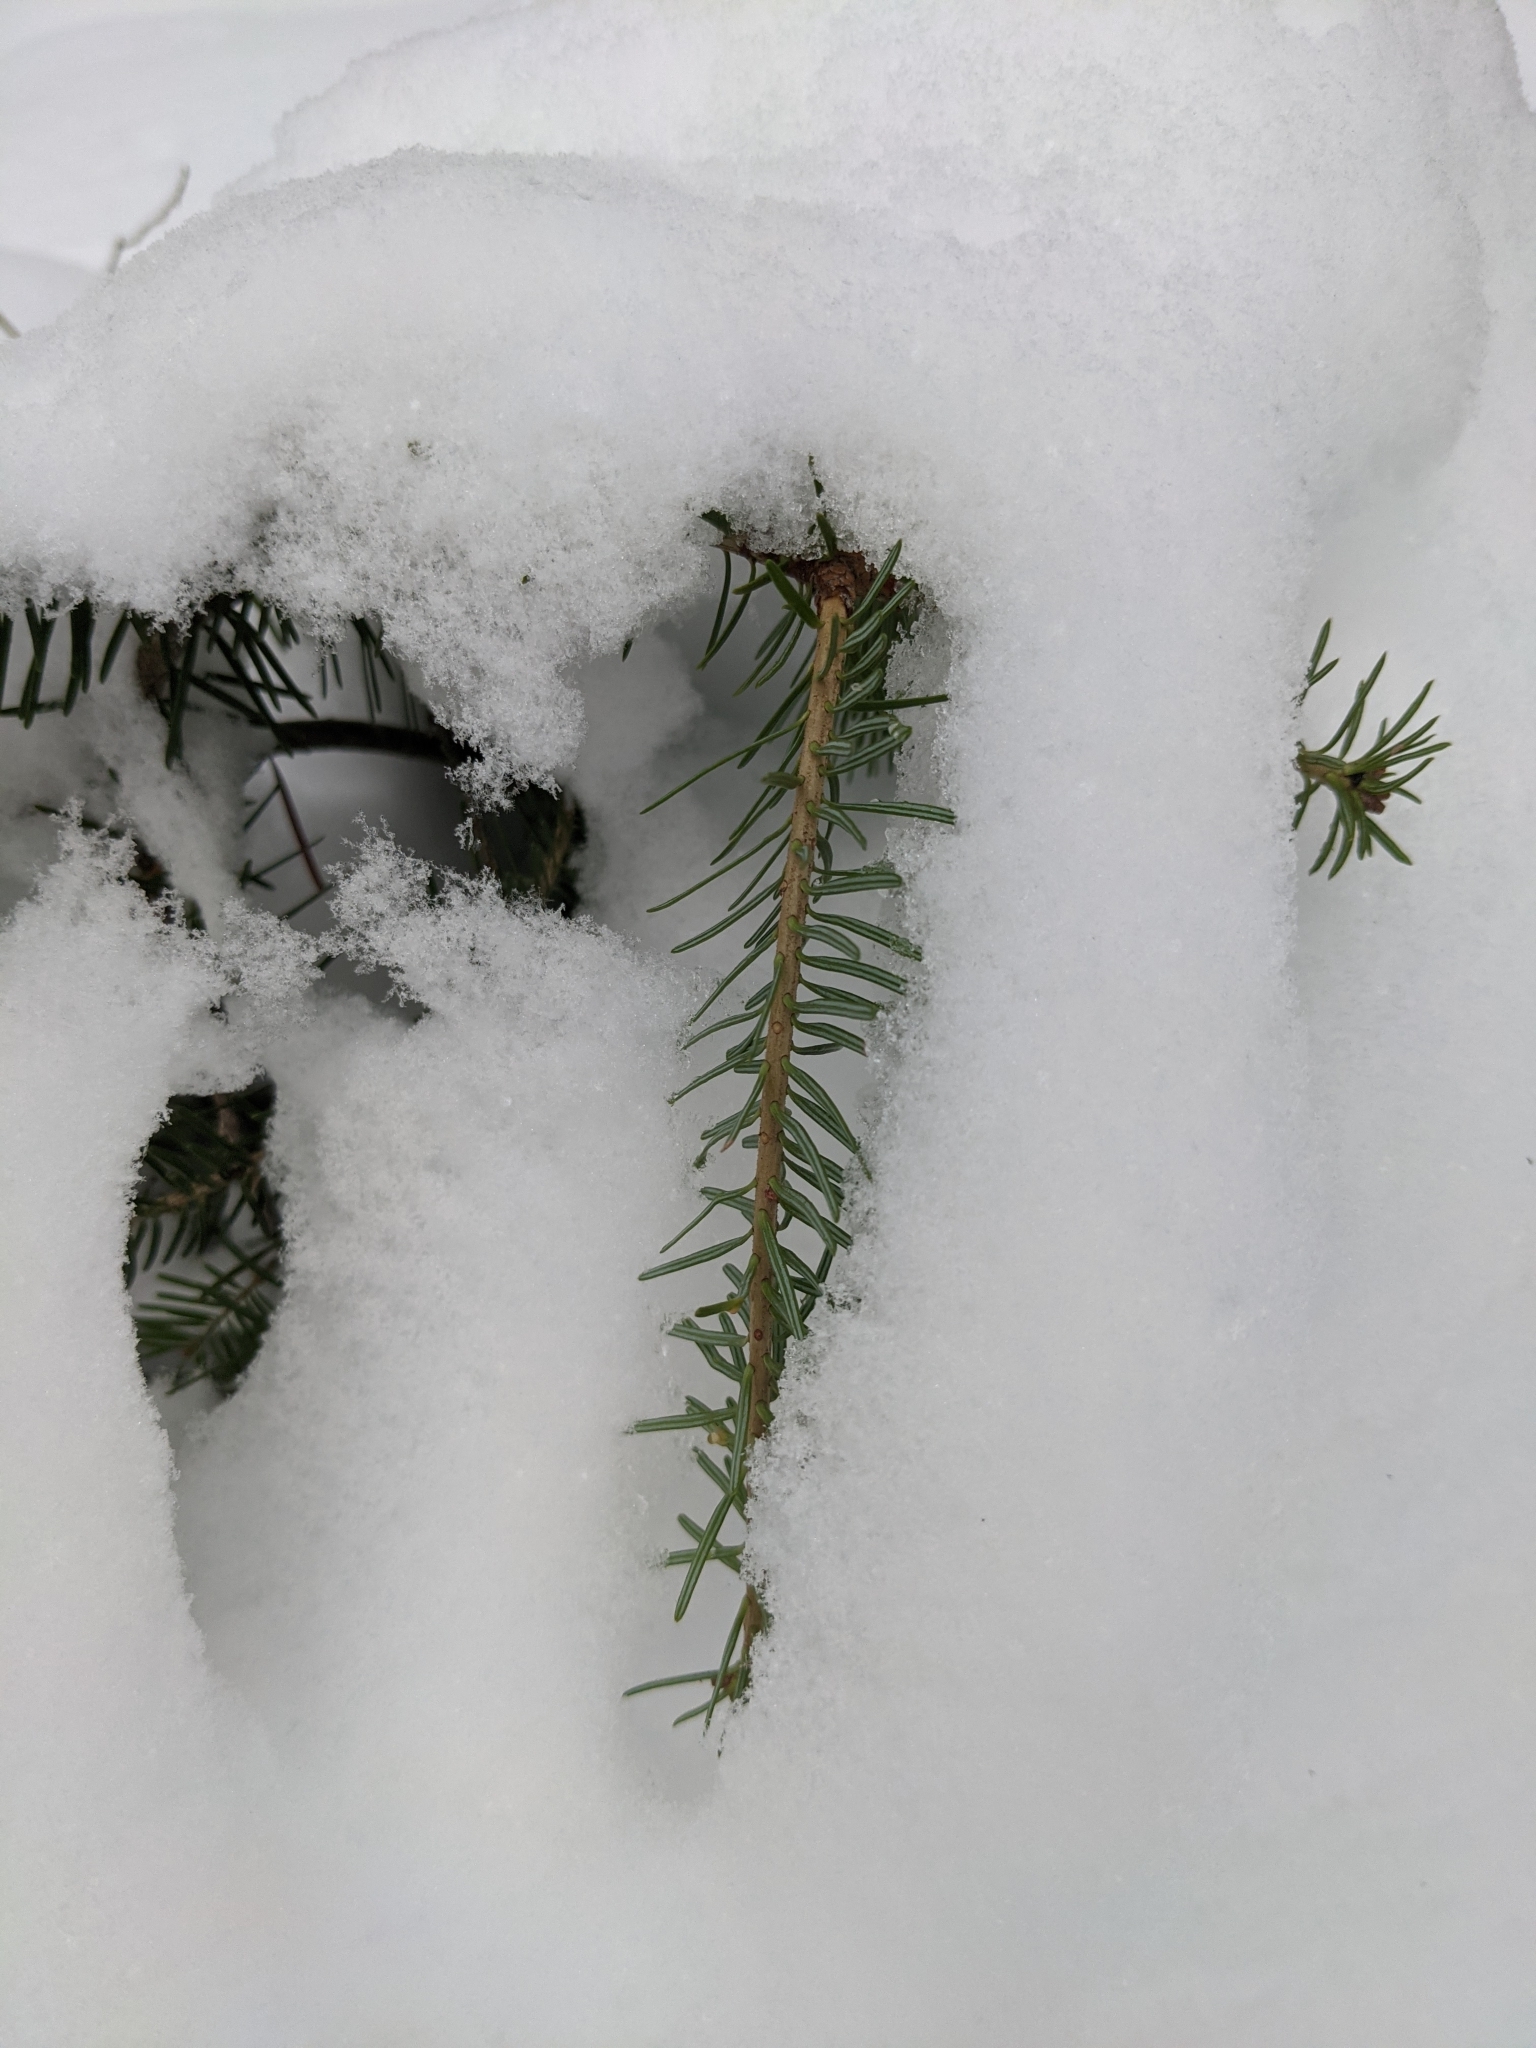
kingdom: Plantae
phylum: Tracheophyta
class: Pinopsida
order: Pinales
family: Pinaceae
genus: Abies
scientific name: Abies balsamea
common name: Balsam fir
